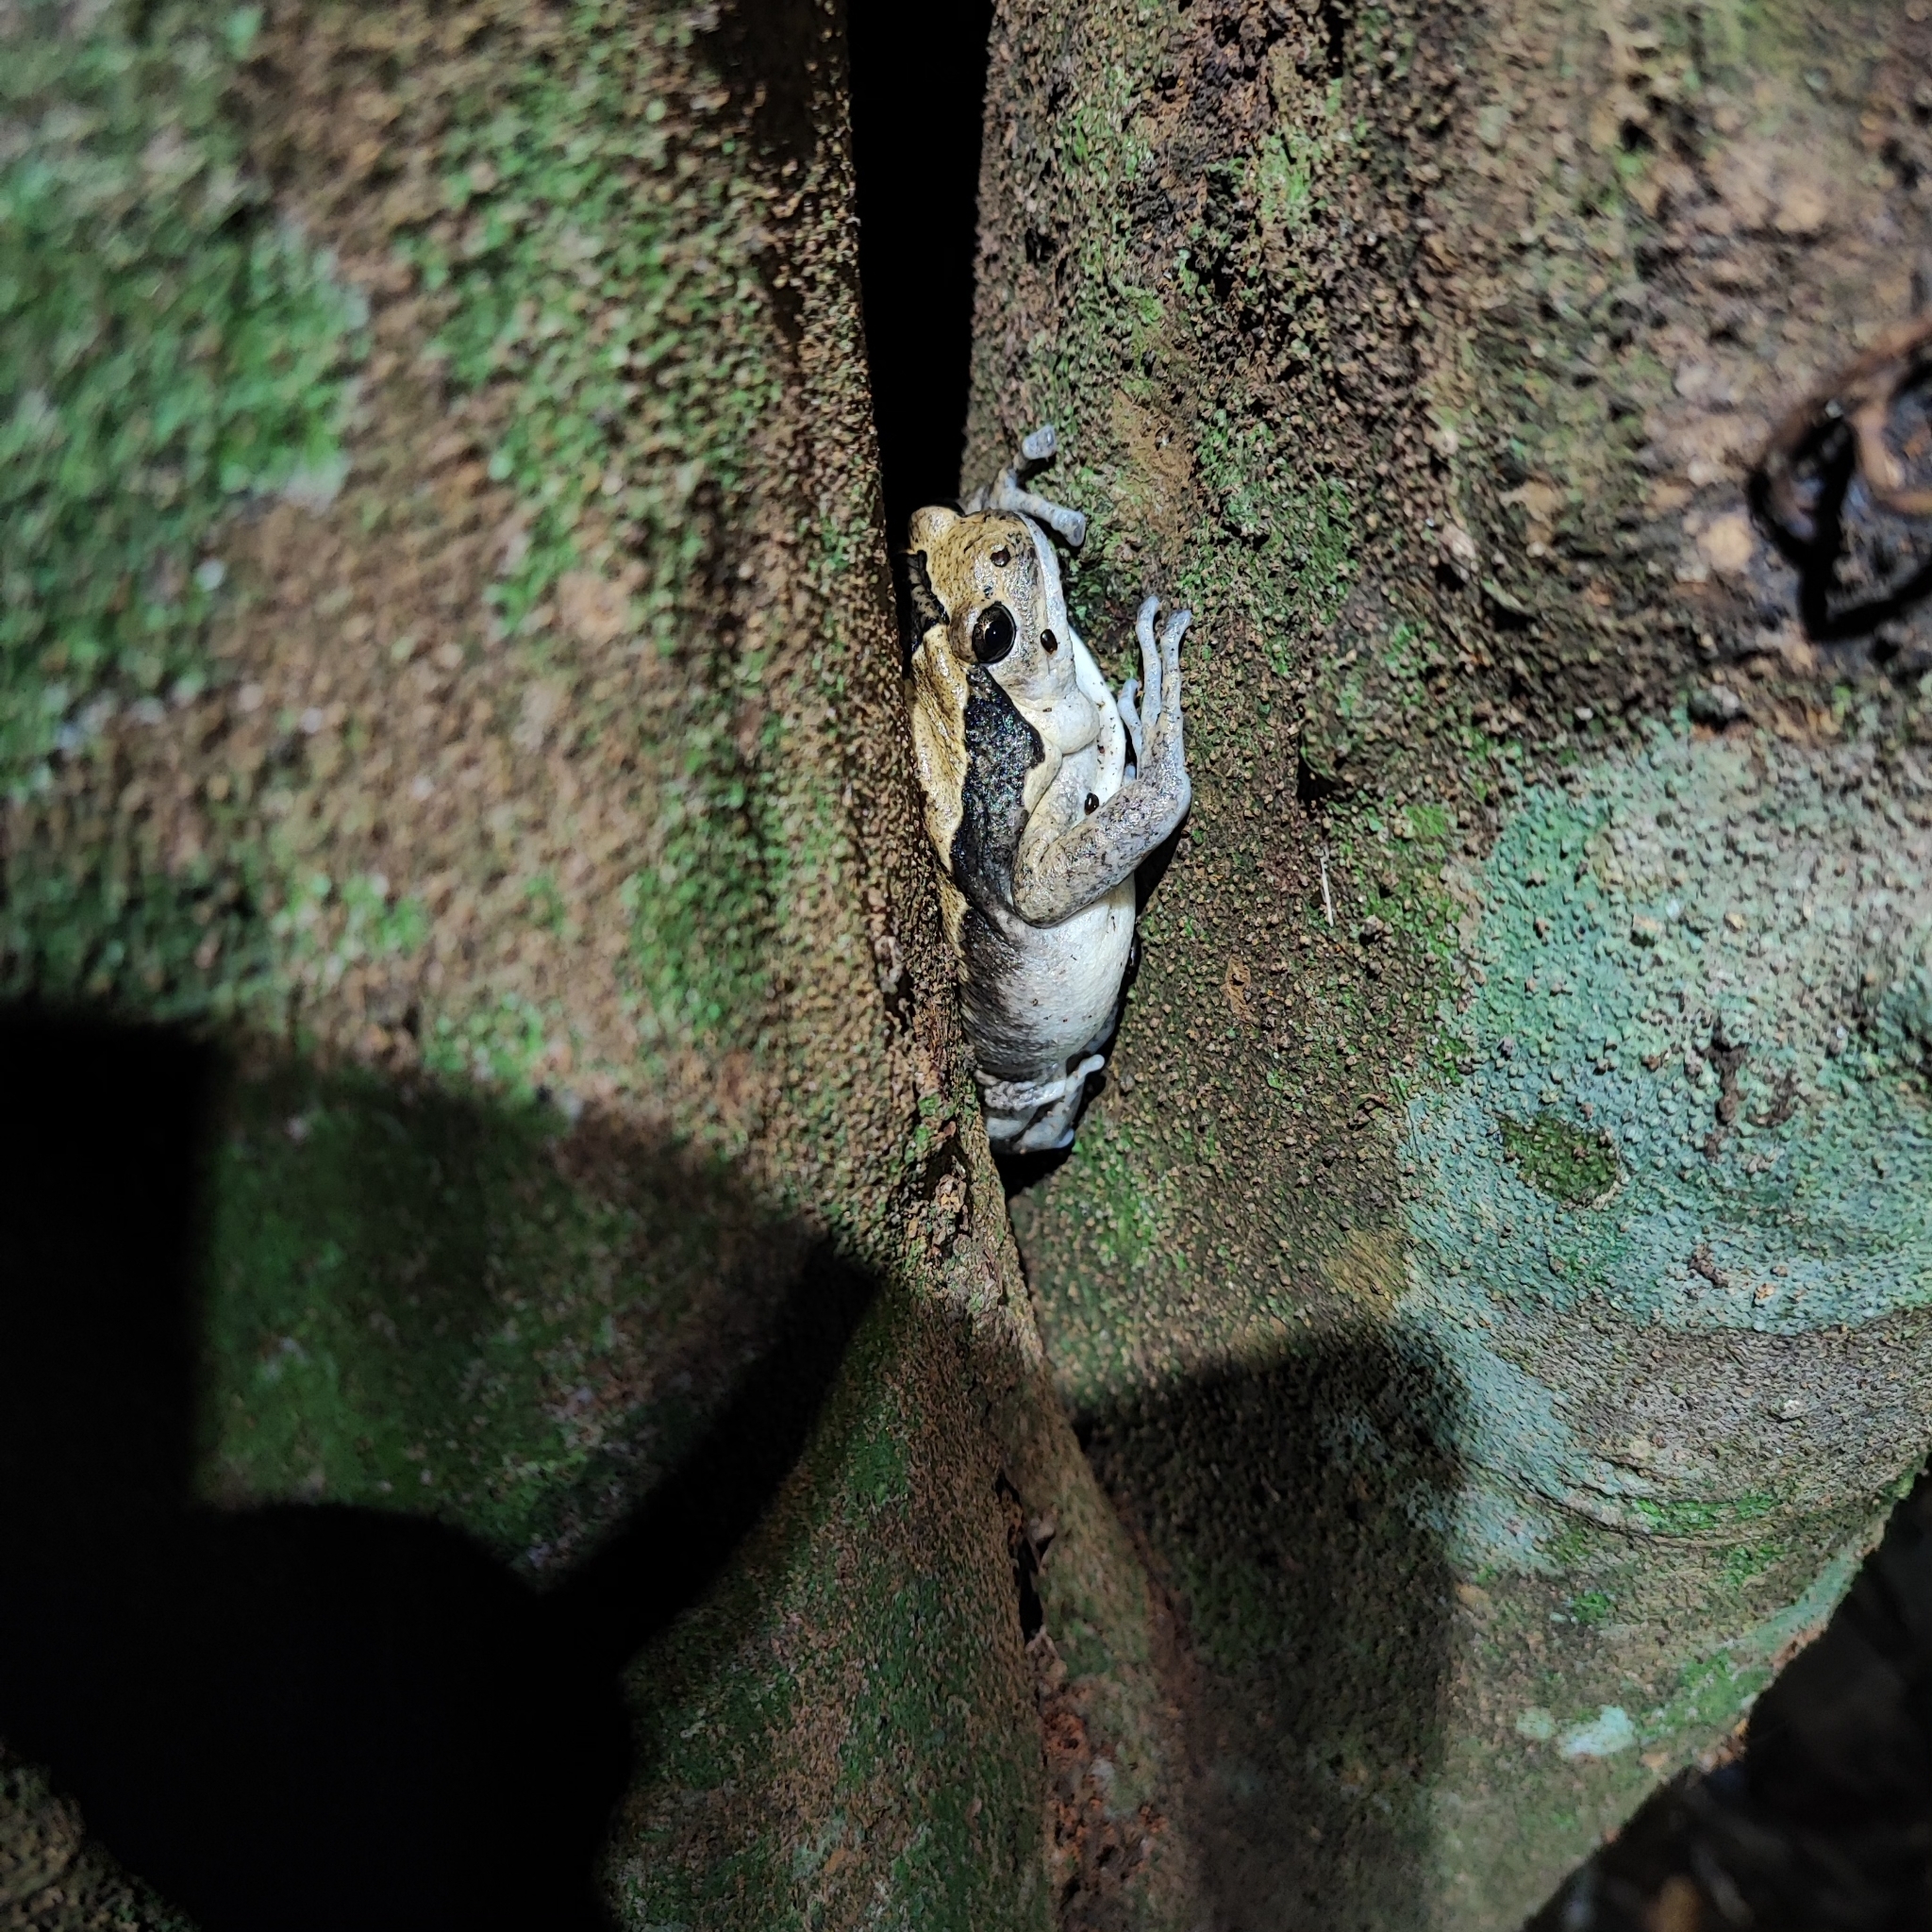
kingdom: Animalia
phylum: Chordata
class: Amphibia
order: Anura
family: Microhylidae
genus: Kaloula
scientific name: Kaloula pulchra
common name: Common,banded bullfrog
